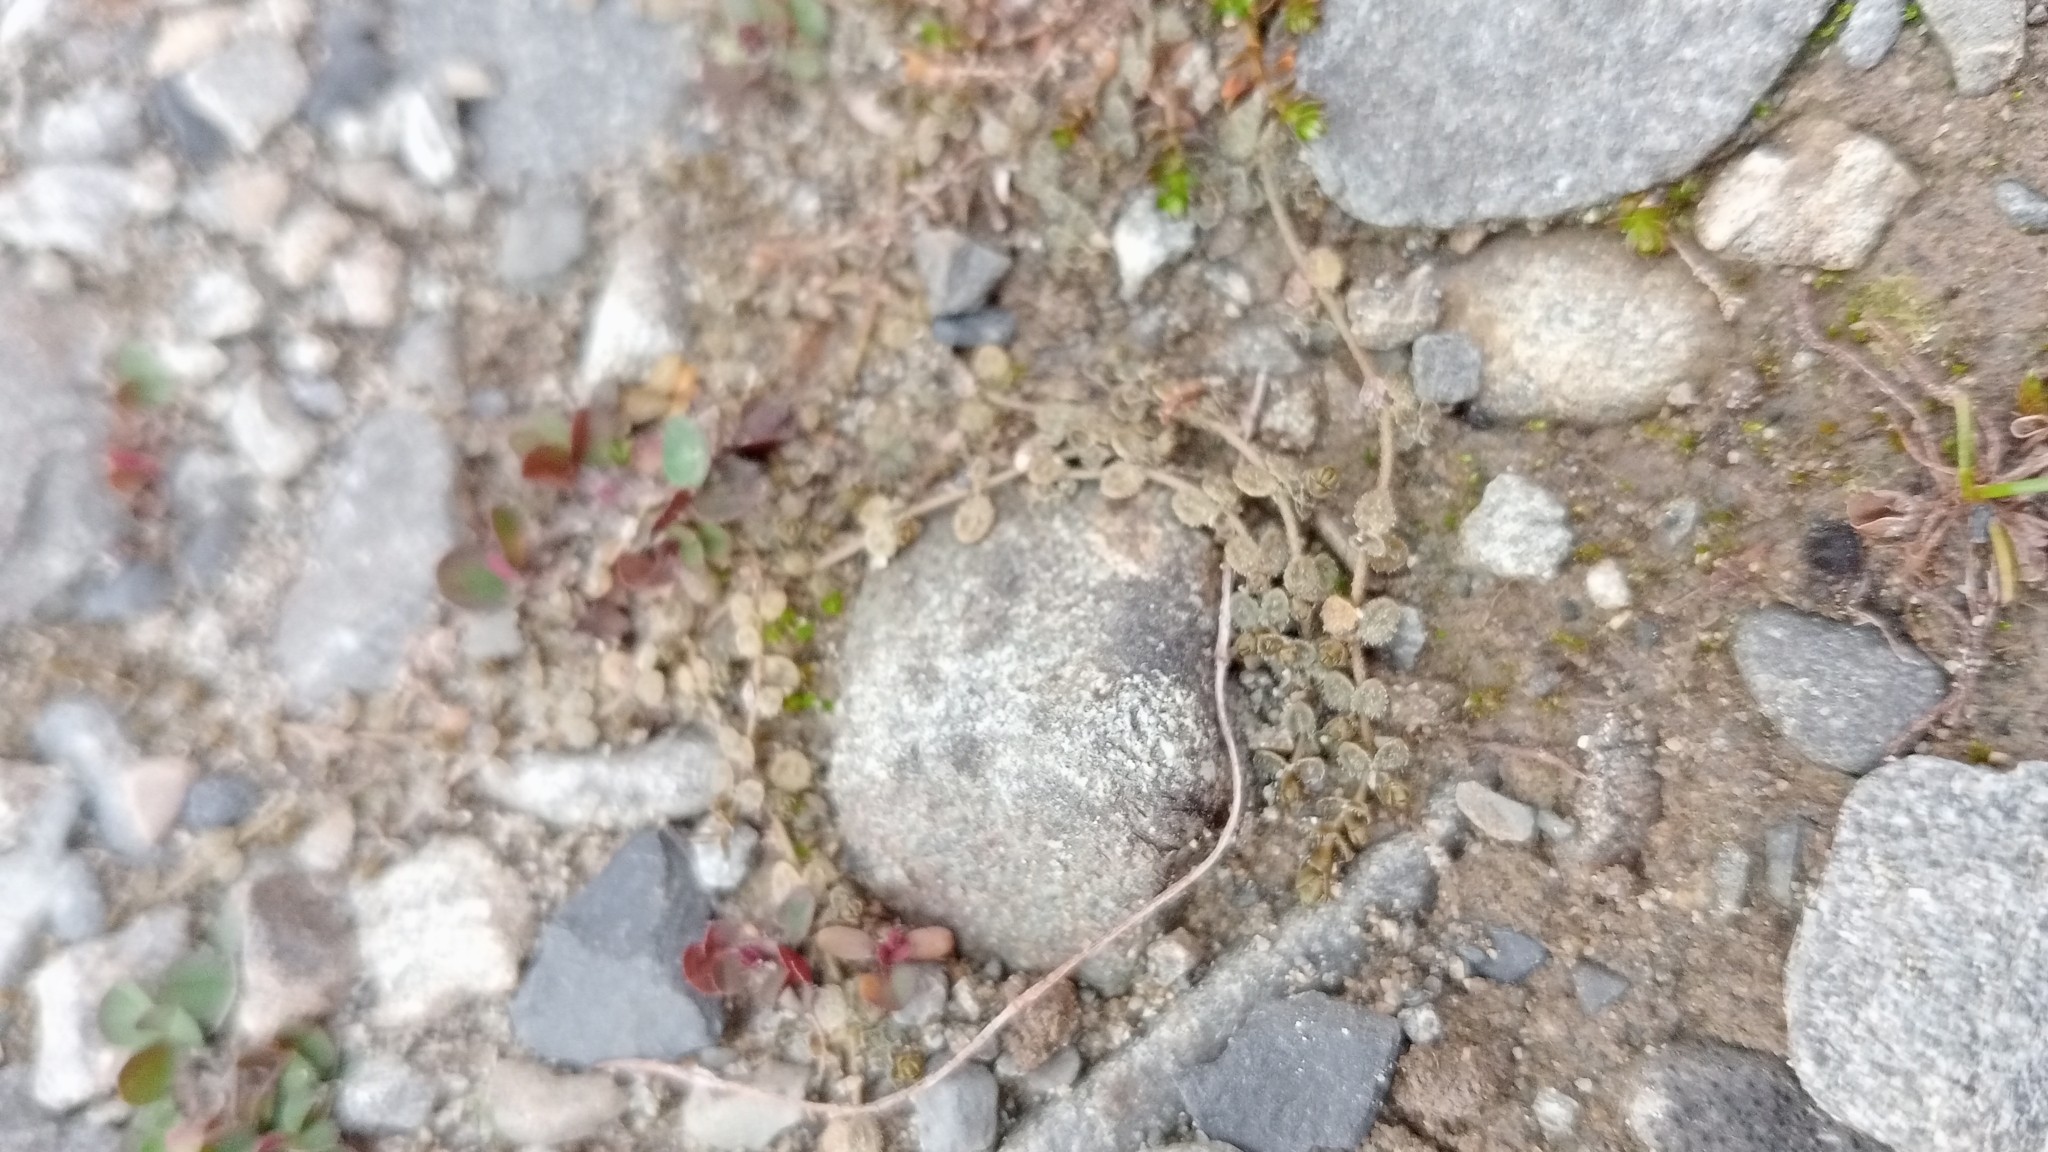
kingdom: Plantae
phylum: Tracheophyta
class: Magnoliopsida
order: Lamiales
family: Plantaginaceae
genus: Veronica
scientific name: Veronica lilliputiana
